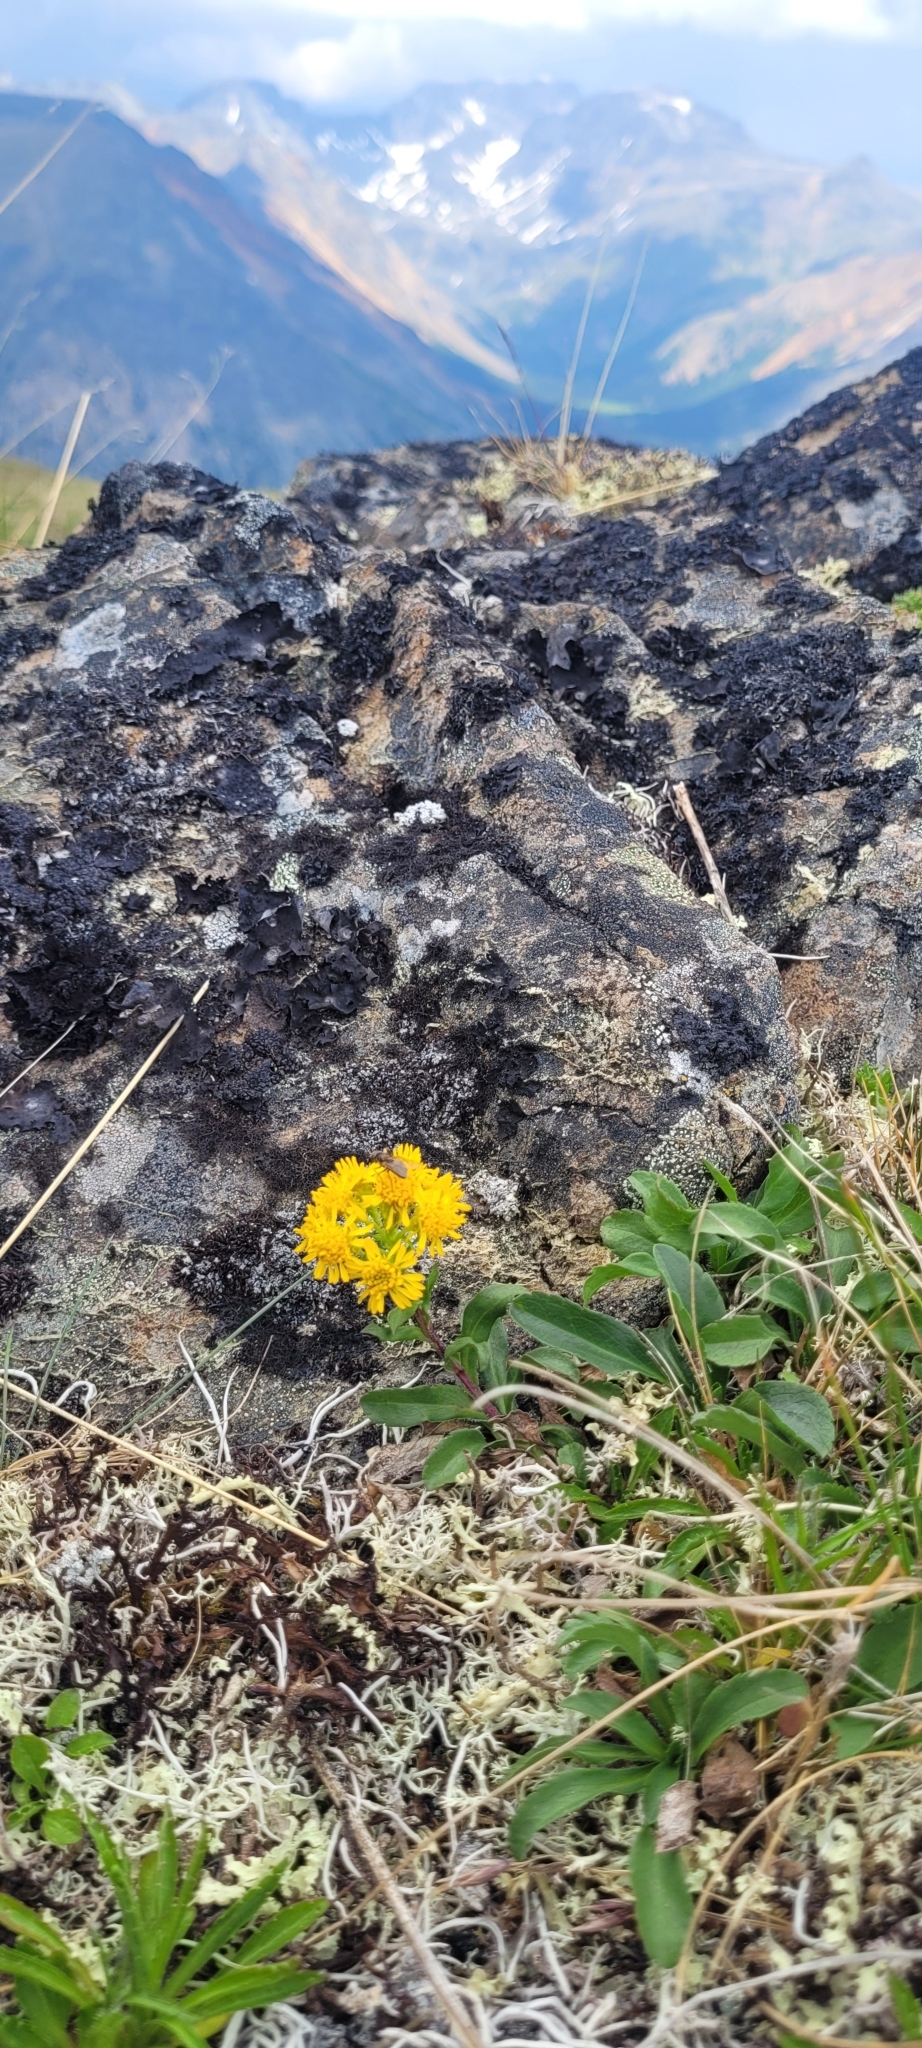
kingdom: Plantae
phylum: Tracheophyta
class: Magnoliopsida
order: Asterales
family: Asteraceae
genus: Solidago
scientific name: Solidago multiradiata
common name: Northern goldenrod
